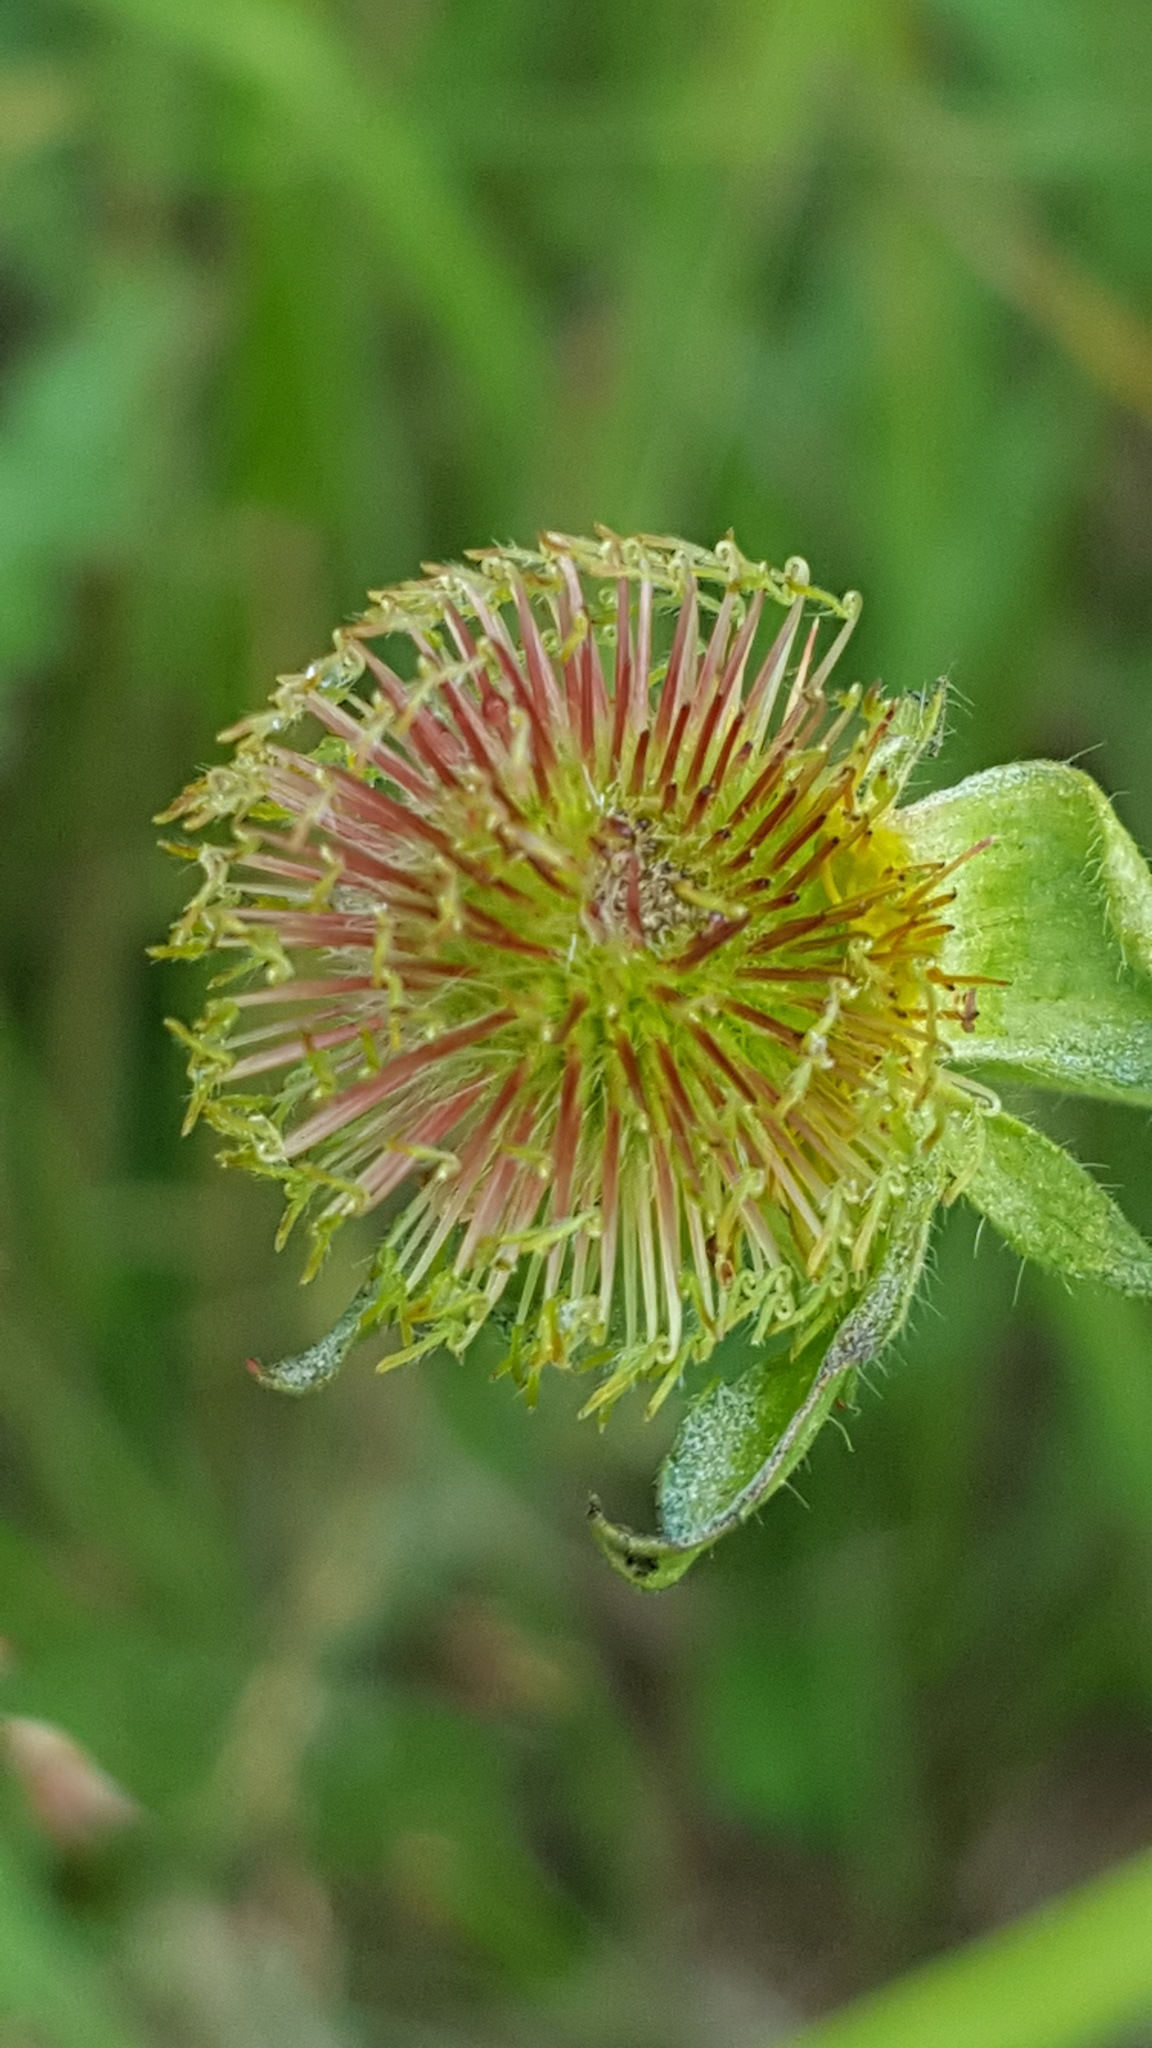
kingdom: Plantae
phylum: Tracheophyta
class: Magnoliopsida
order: Rosales
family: Rosaceae
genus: Geum
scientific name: Geum aleppicum
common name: Yellow avens
